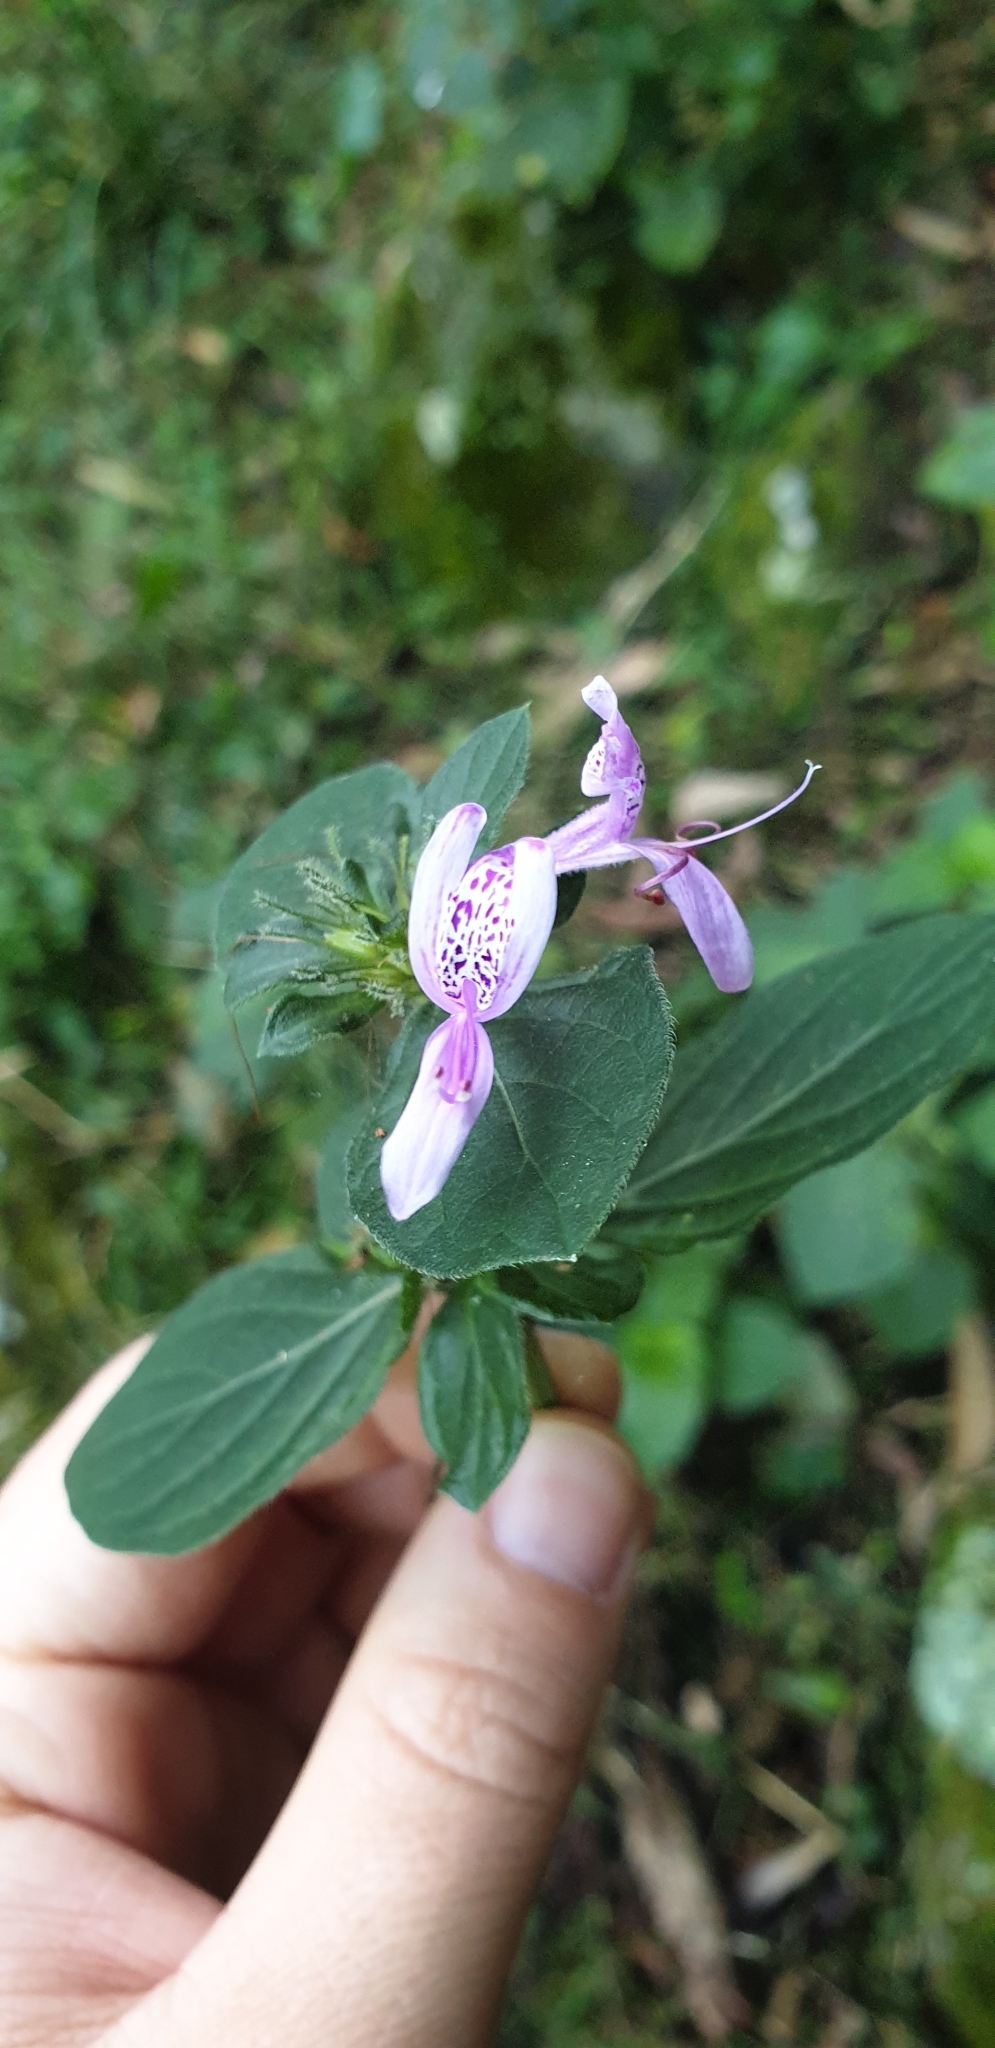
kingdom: Plantae
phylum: Tracheophyta
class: Magnoliopsida
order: Lamiales
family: Acanthaceae
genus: Hypoestes
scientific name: Hypoestes aristata
